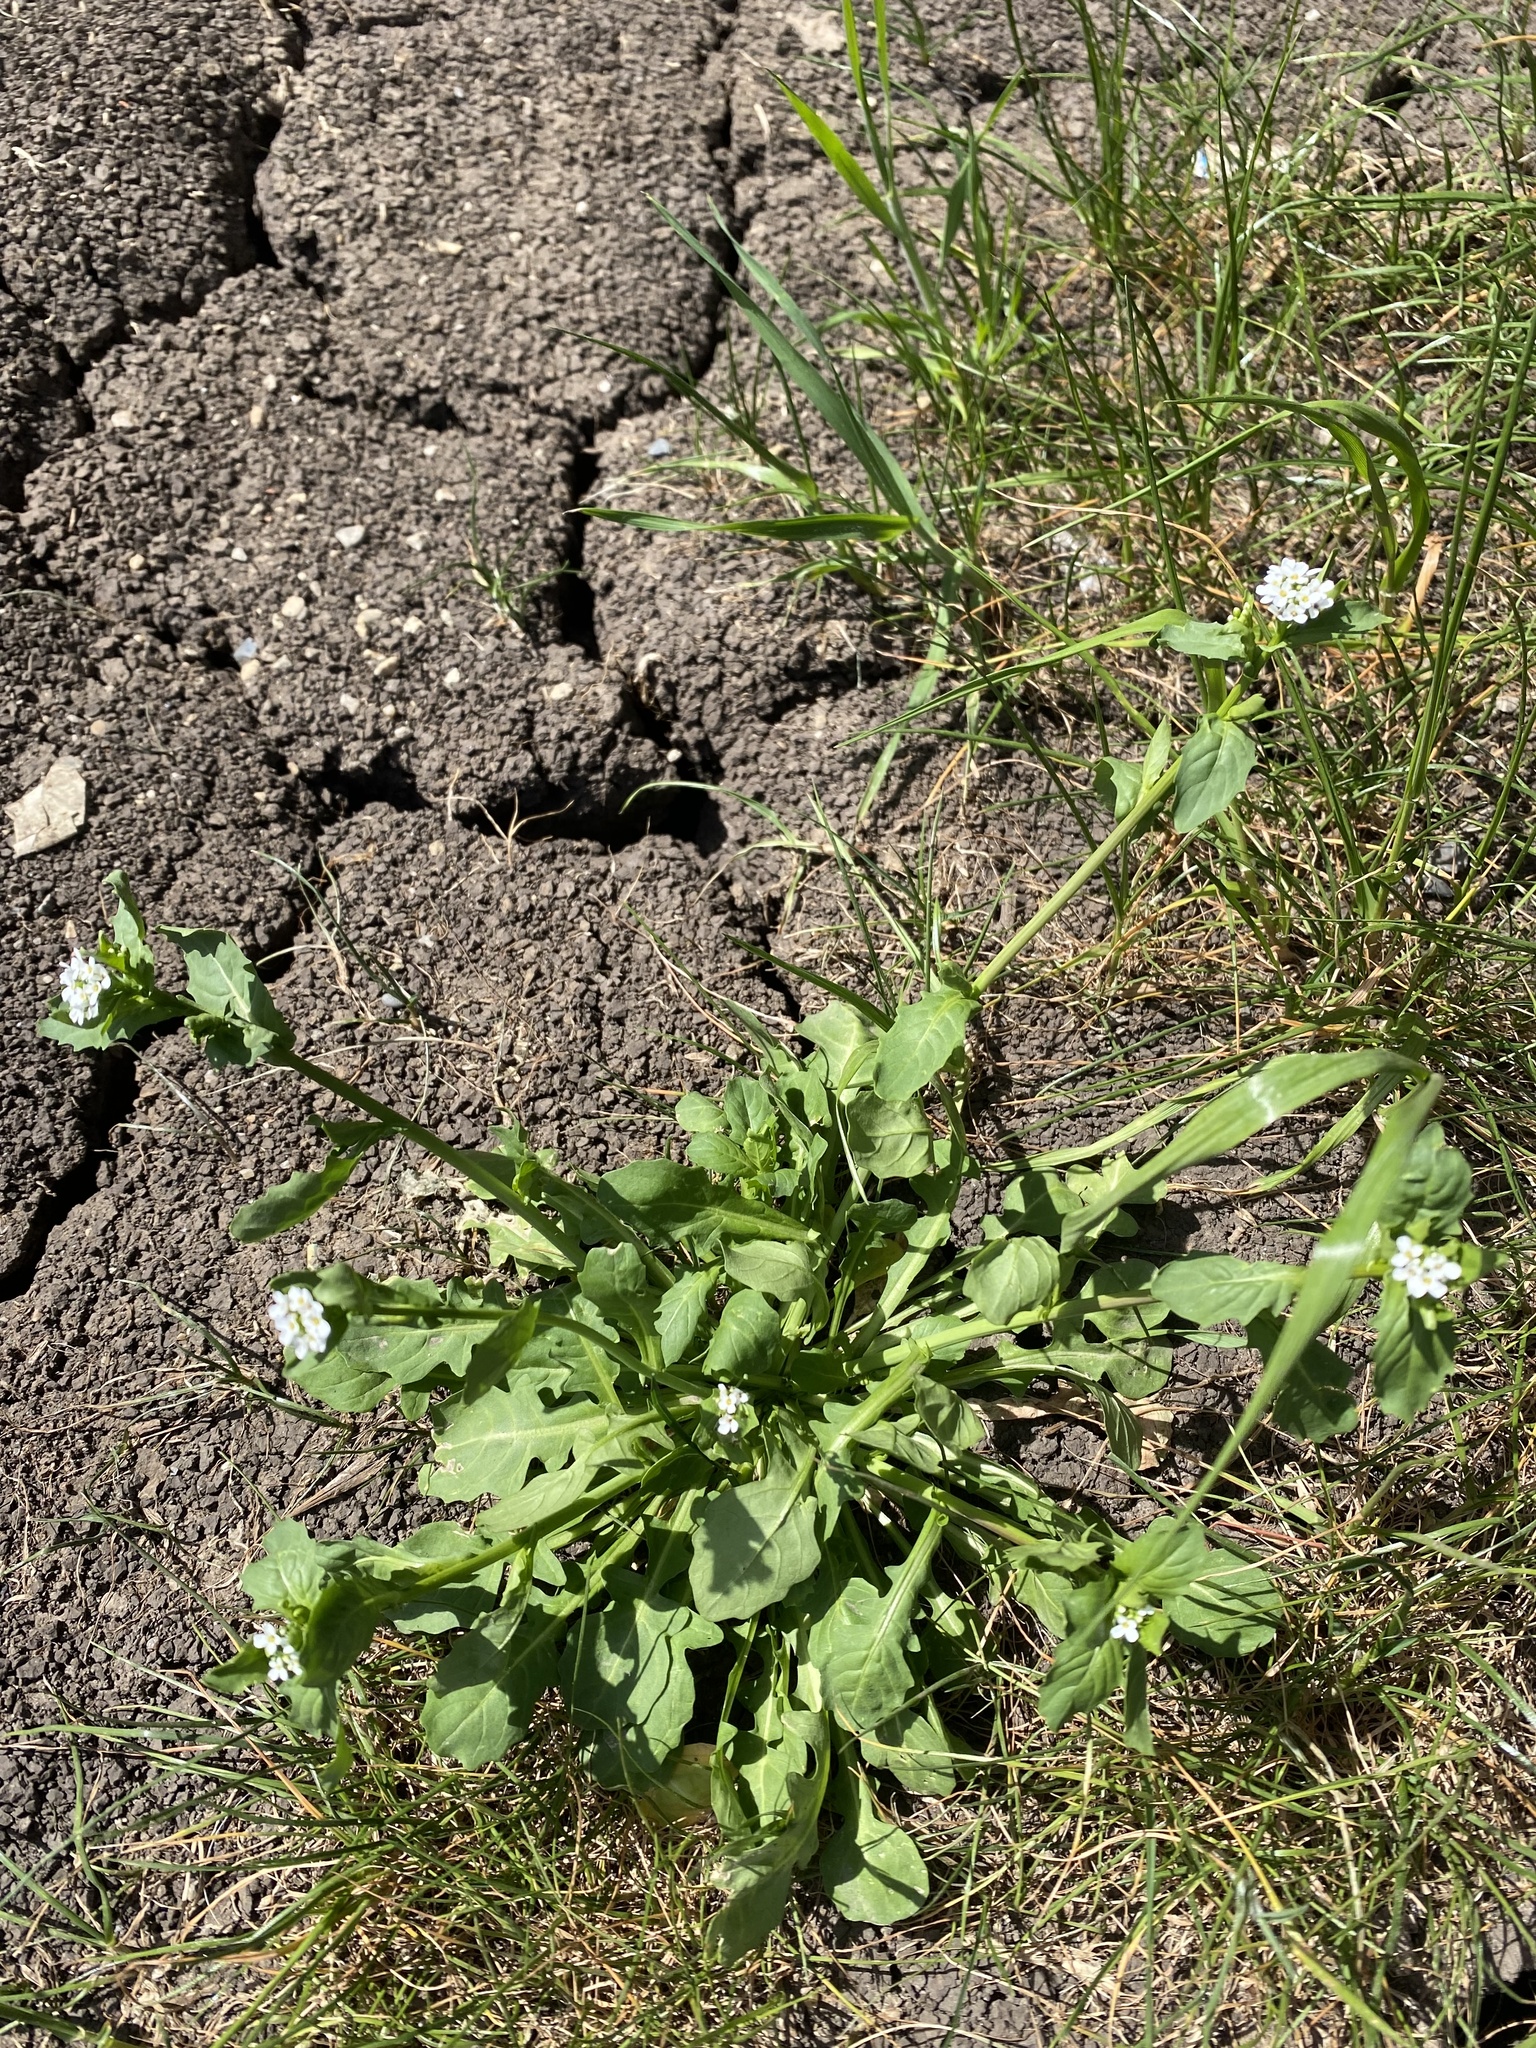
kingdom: Plantae
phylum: Tracheophyta
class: Magnoliopsida
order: Brassicales
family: Brassicaceae
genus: Calepina
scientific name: Calepina irregularis
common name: White ballmustard
